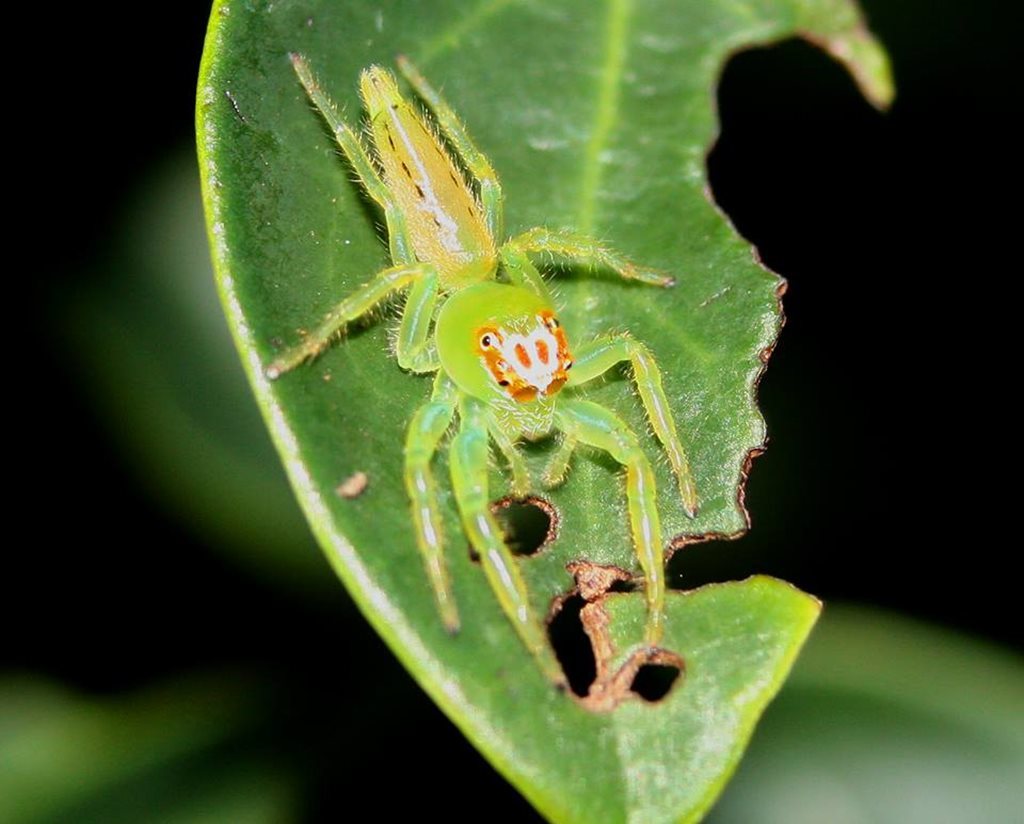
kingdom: Animalia
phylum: Arthropoda
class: Arachnida
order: Araneae
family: Salticidae
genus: Mopsus
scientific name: Mopsus mormon
